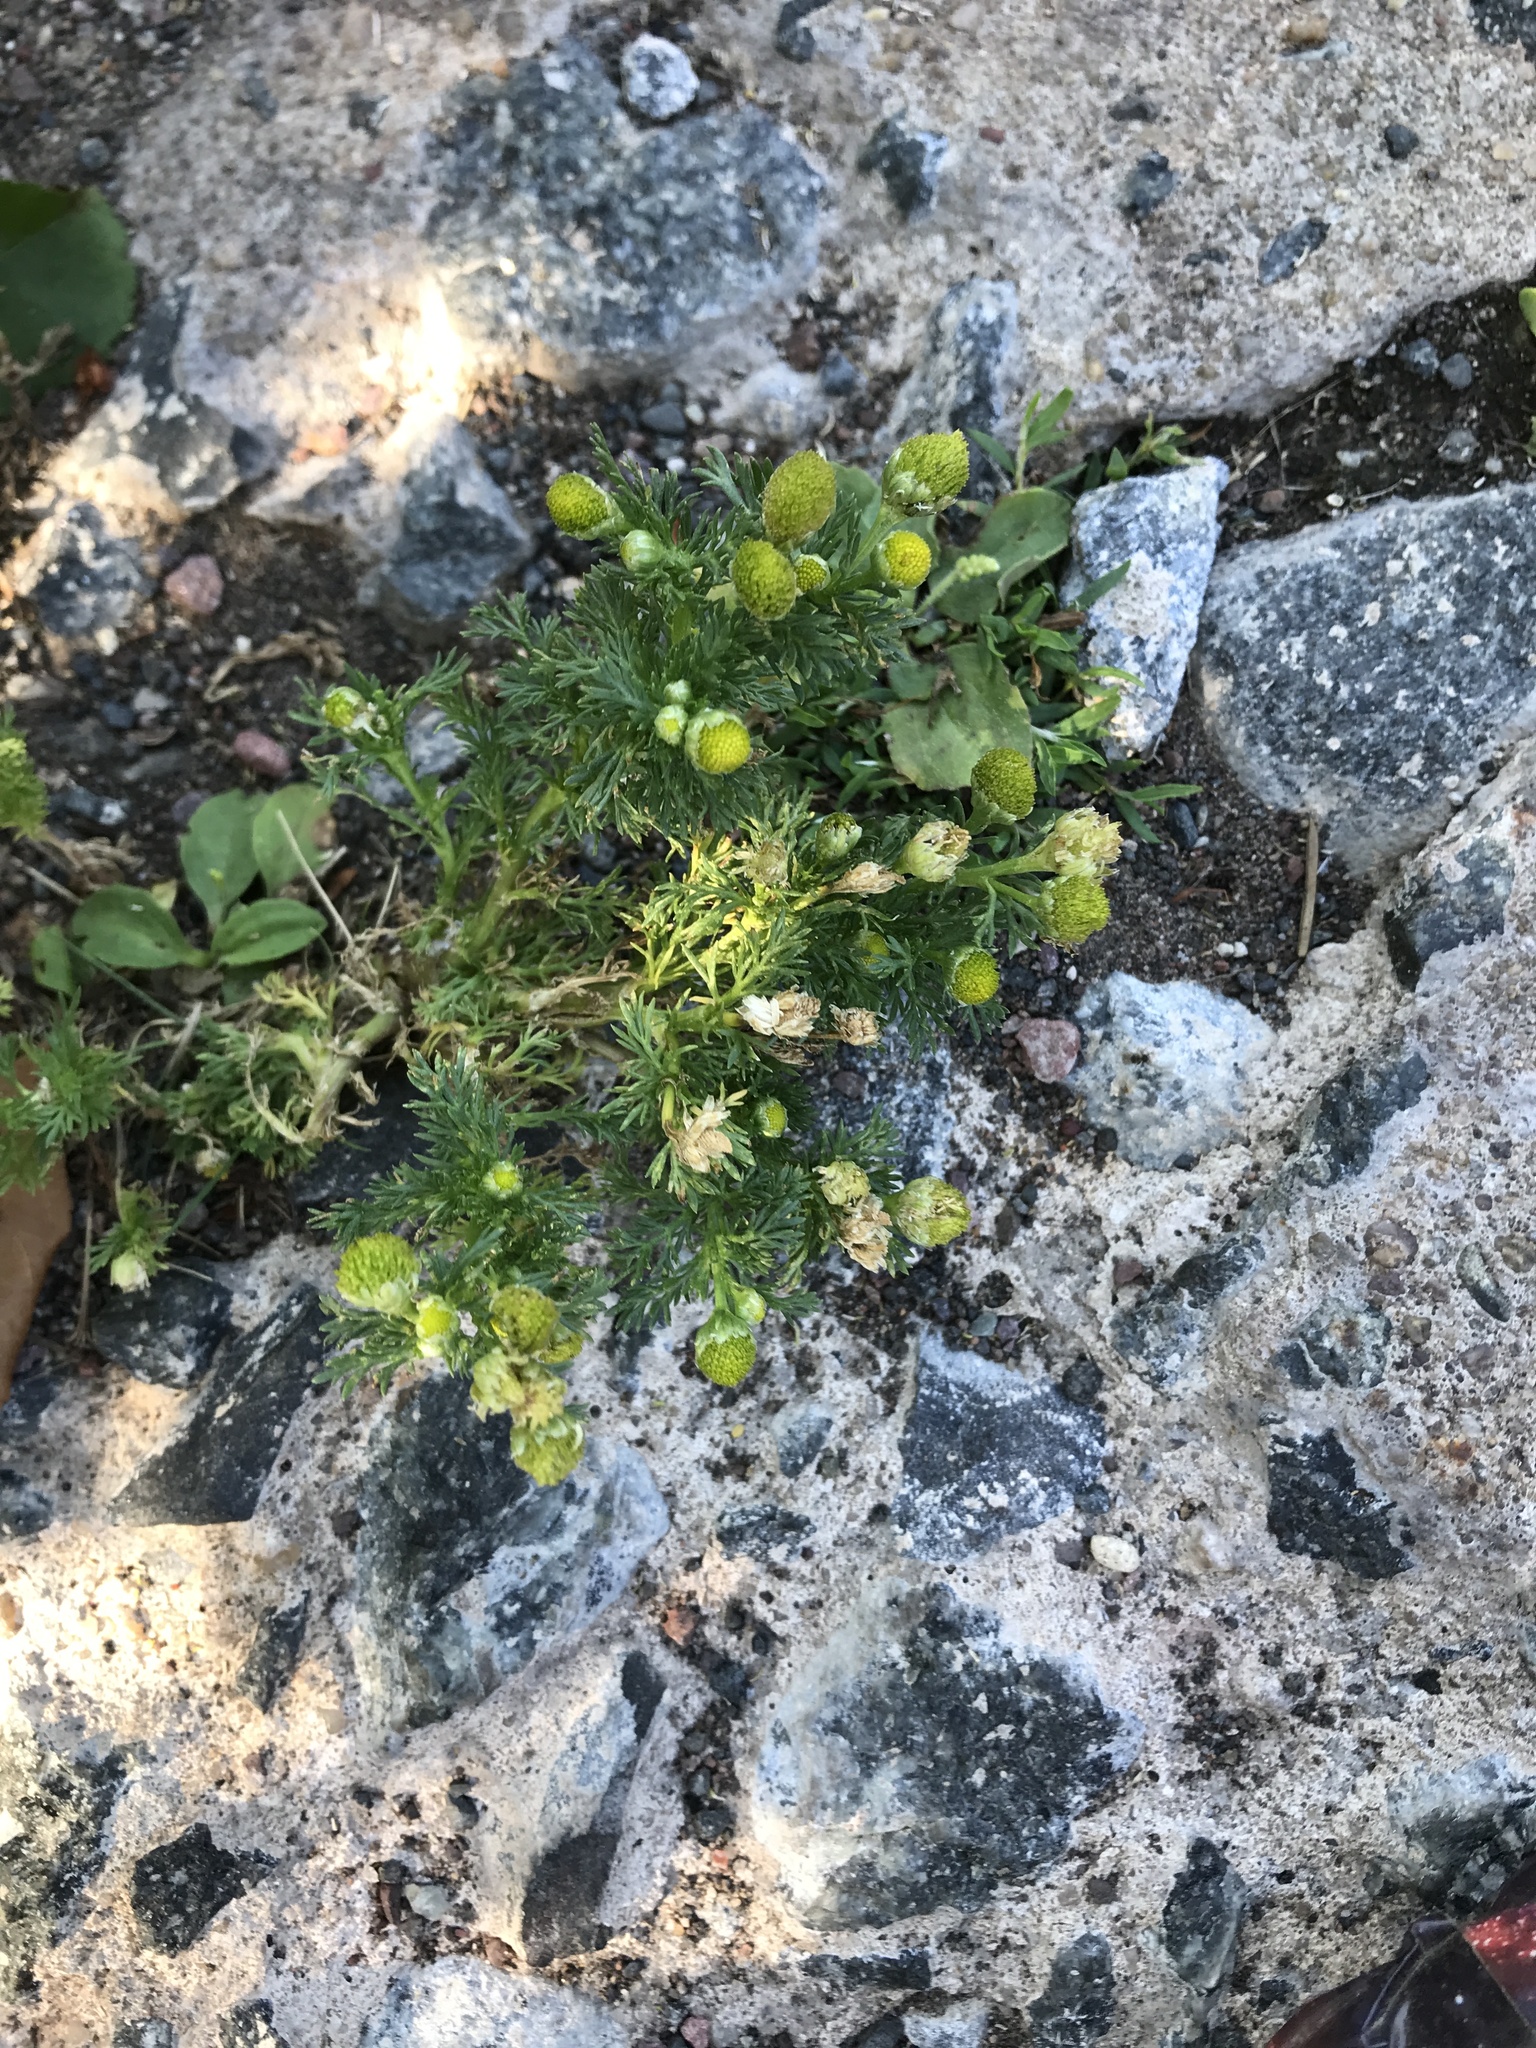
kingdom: Plantae
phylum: Tracheophyta
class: Magnoliopsida
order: Asterales
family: Asteraceae
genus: Matricaria
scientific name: Matricaria discoidea
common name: Disc mayweed
